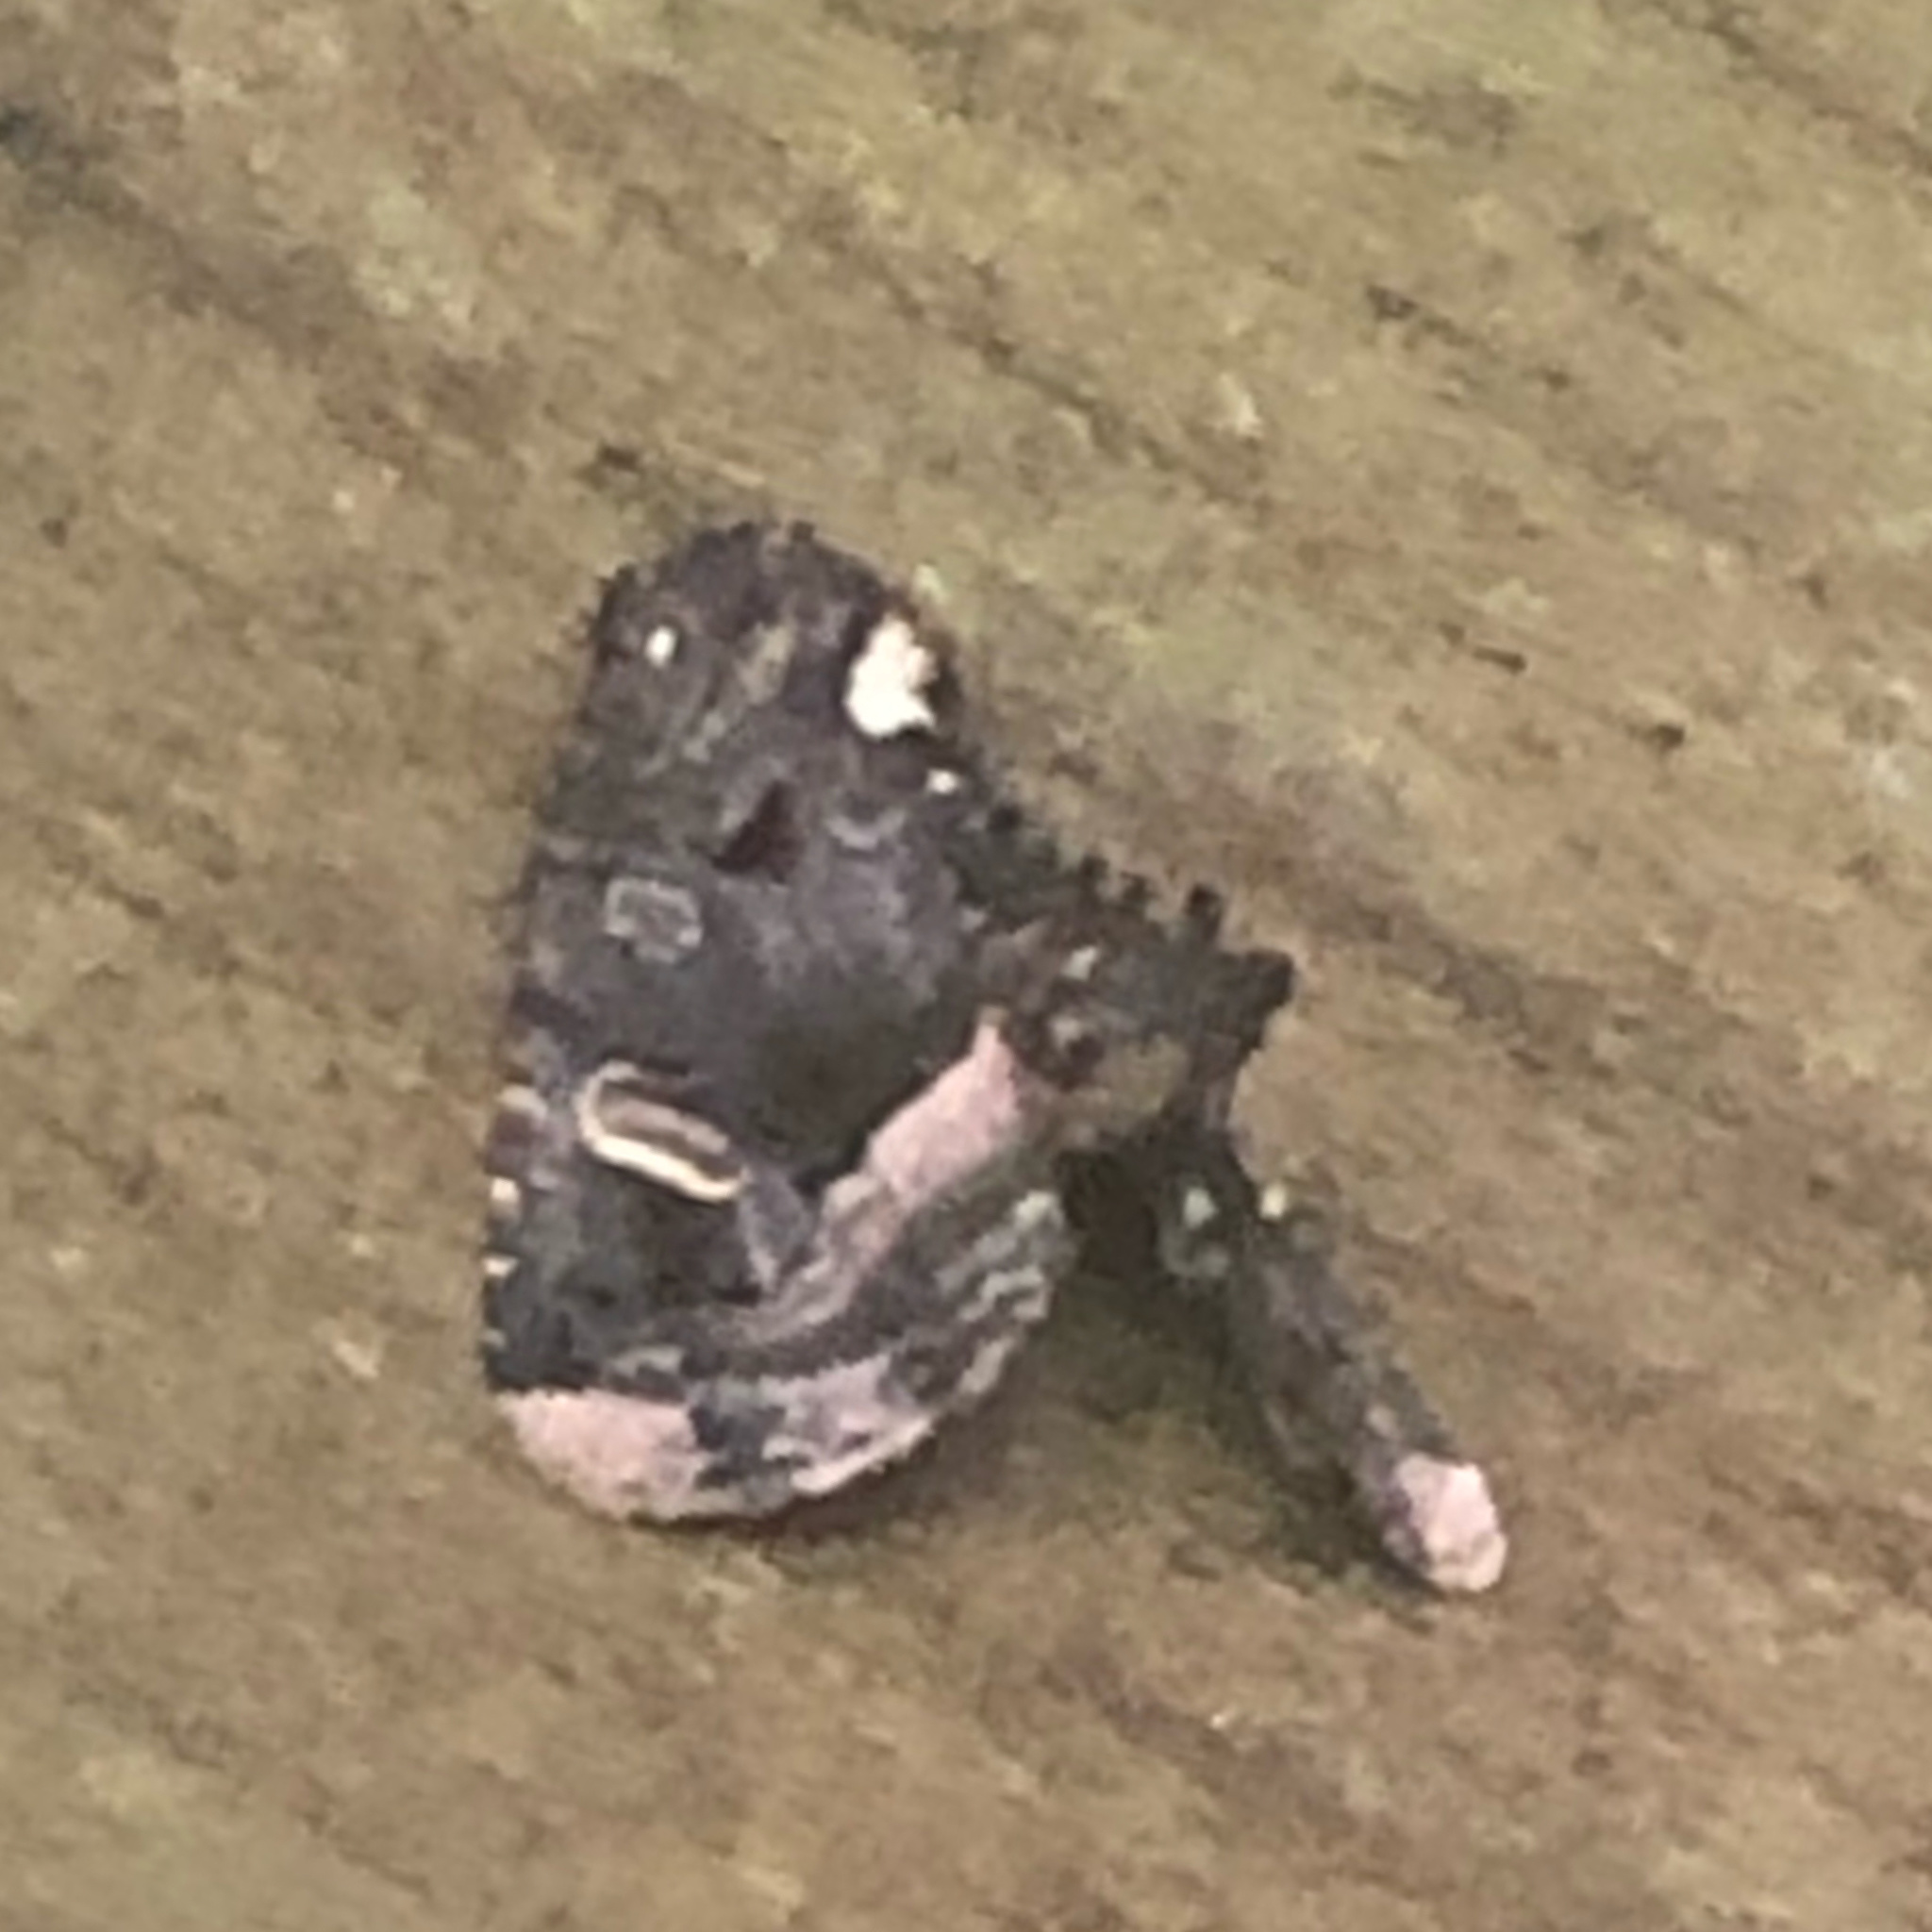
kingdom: Animalia
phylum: Arthropoda
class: Insecta
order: Lepidoptera
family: Noctuidae
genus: Homophoberia
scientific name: Homophoberia apicosa
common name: Black wedge-spot
